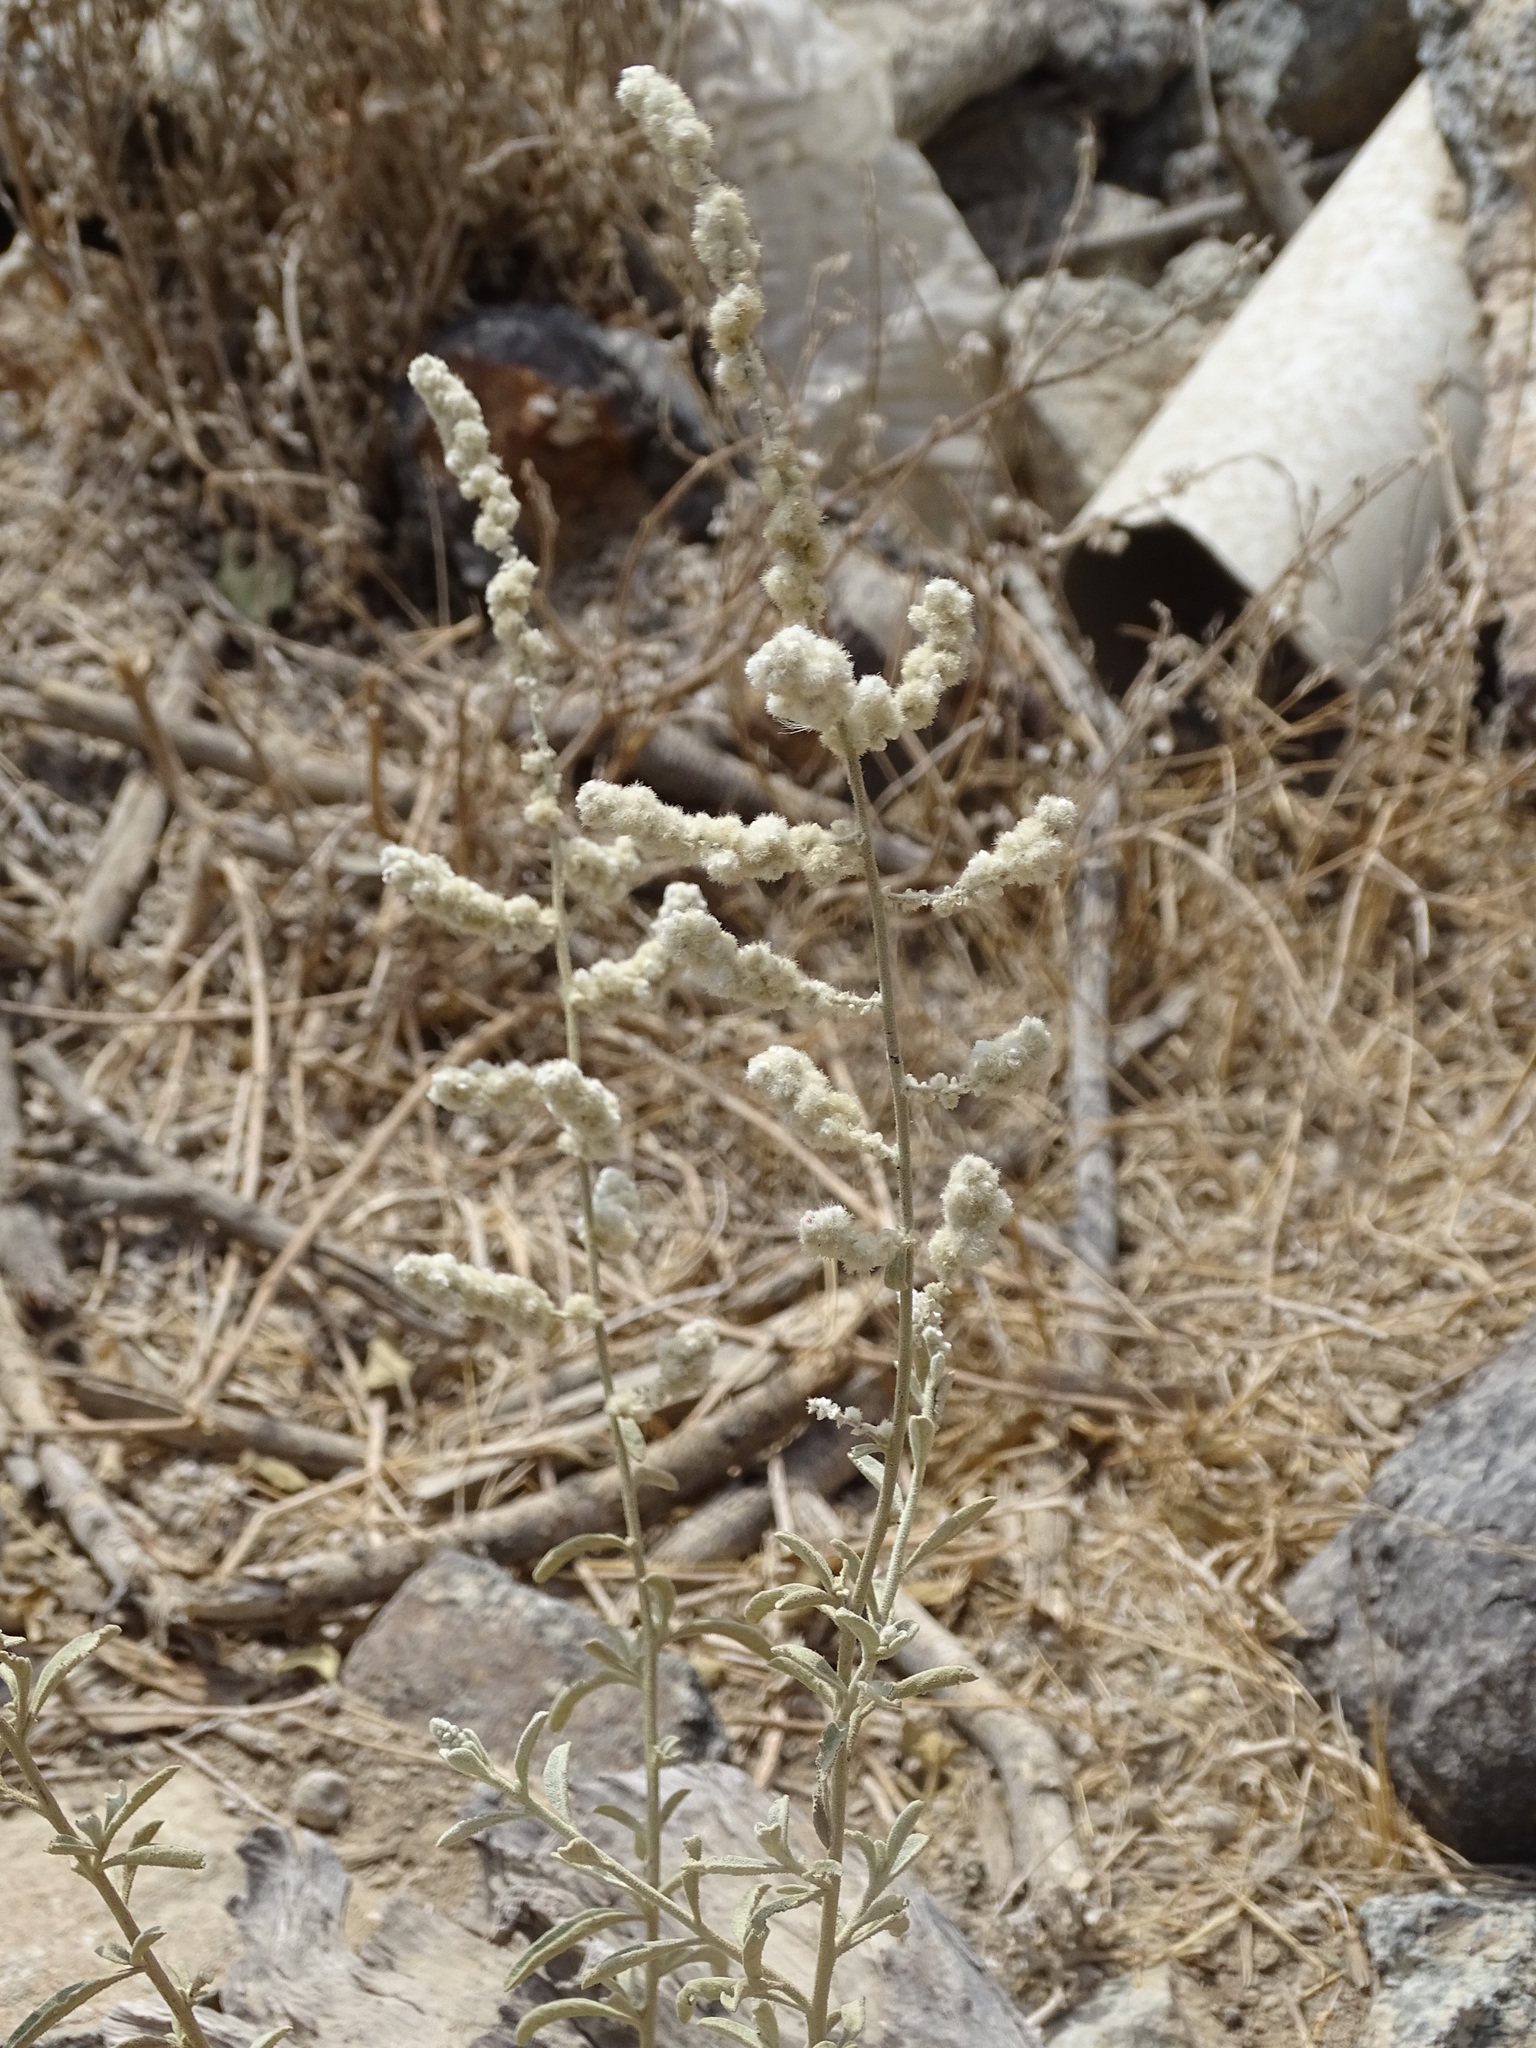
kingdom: Plantae
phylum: Tracheophyta
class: Magnoliopsida
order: Caryophyllales
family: Amaranthaceae
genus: Aerva
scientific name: Aerva javanica
